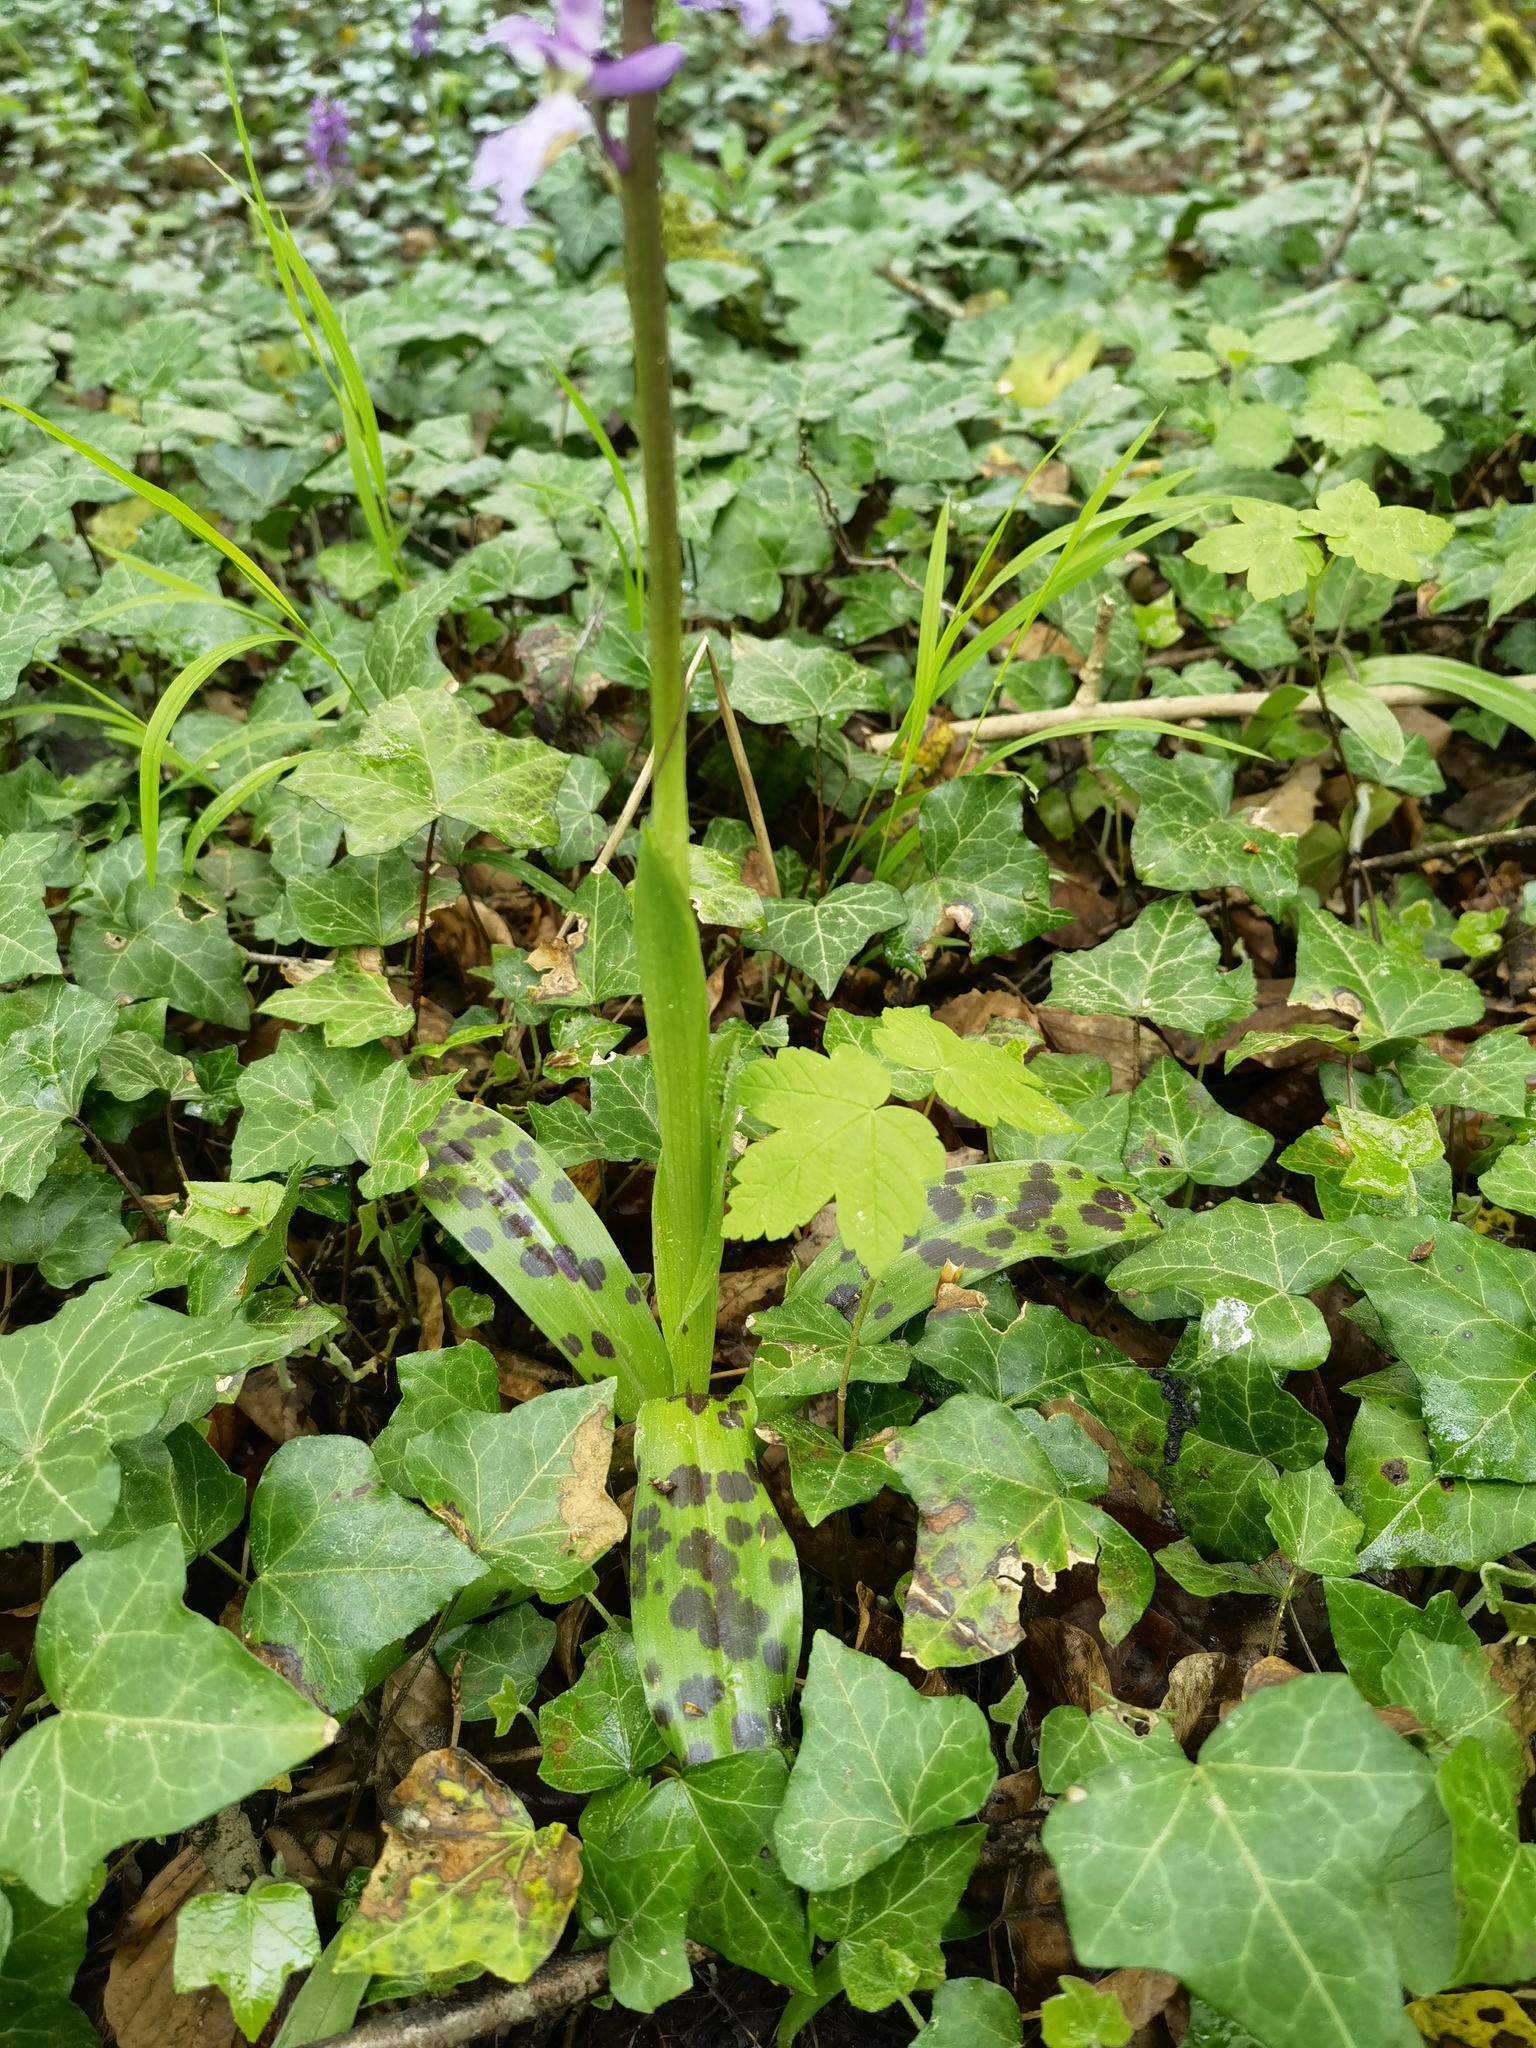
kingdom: Plantae
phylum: Tracheophyta
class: Liliopsida
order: Asparagales
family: Orchidaceae
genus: Orchis
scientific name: Orchis mascula
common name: Early-purple orchid
